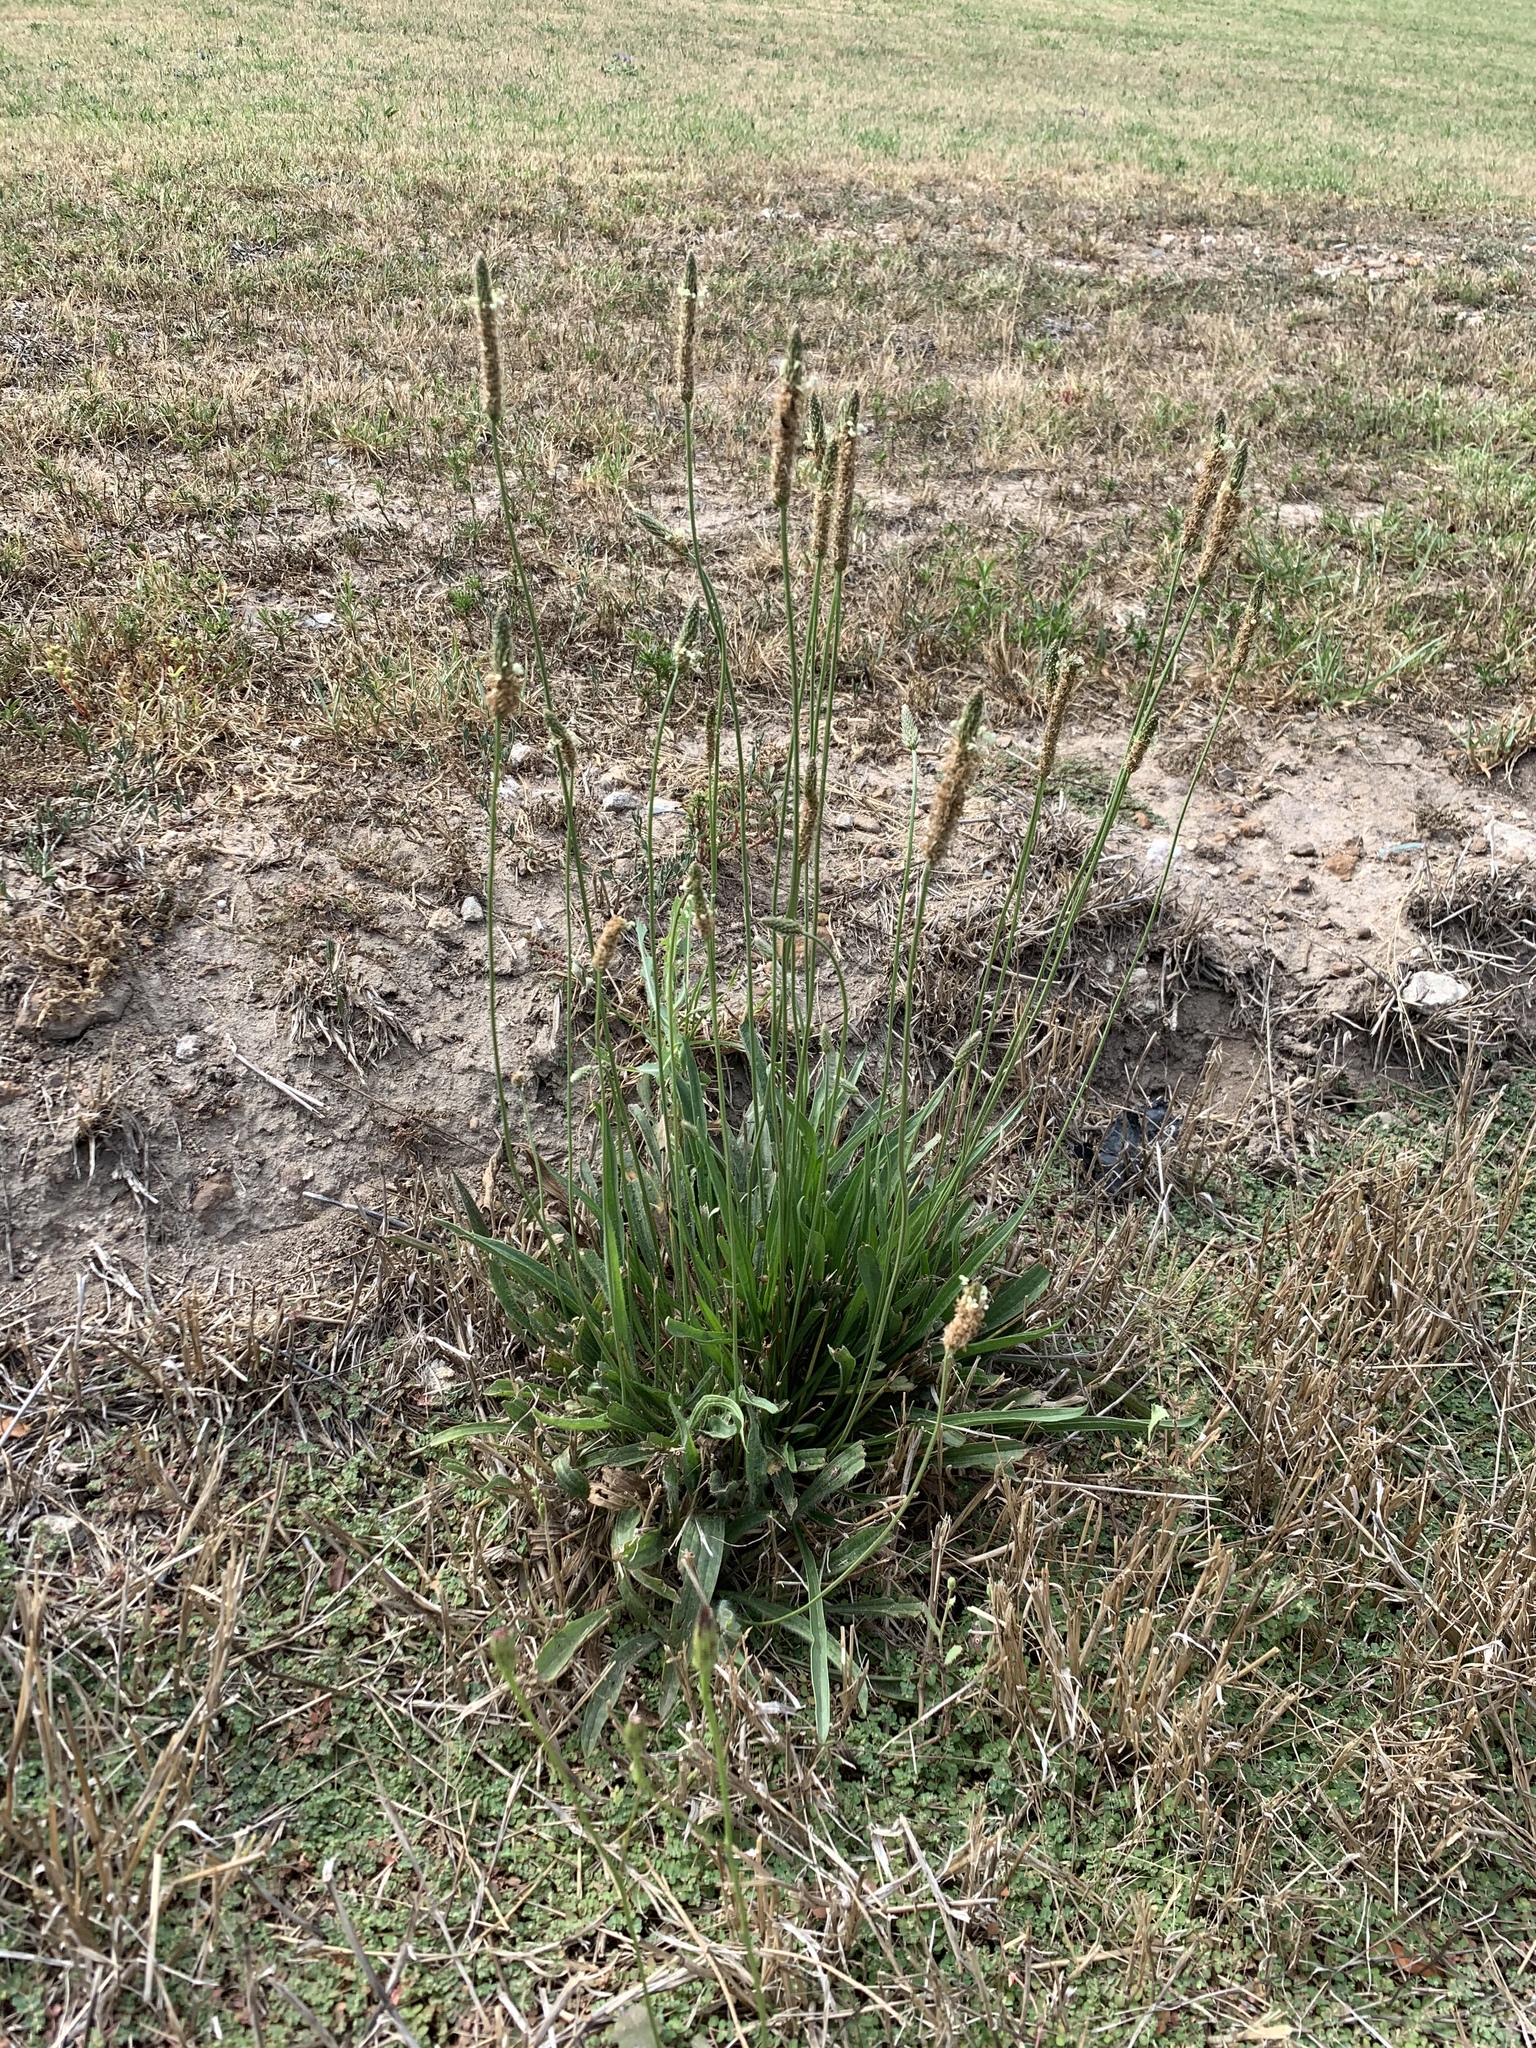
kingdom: Plantae
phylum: Tracheophyta
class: Magnoliopsida
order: Lamiales
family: Plantaginaceae
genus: Plantago
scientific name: Plantago lanceolata
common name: Ribwort plantain
